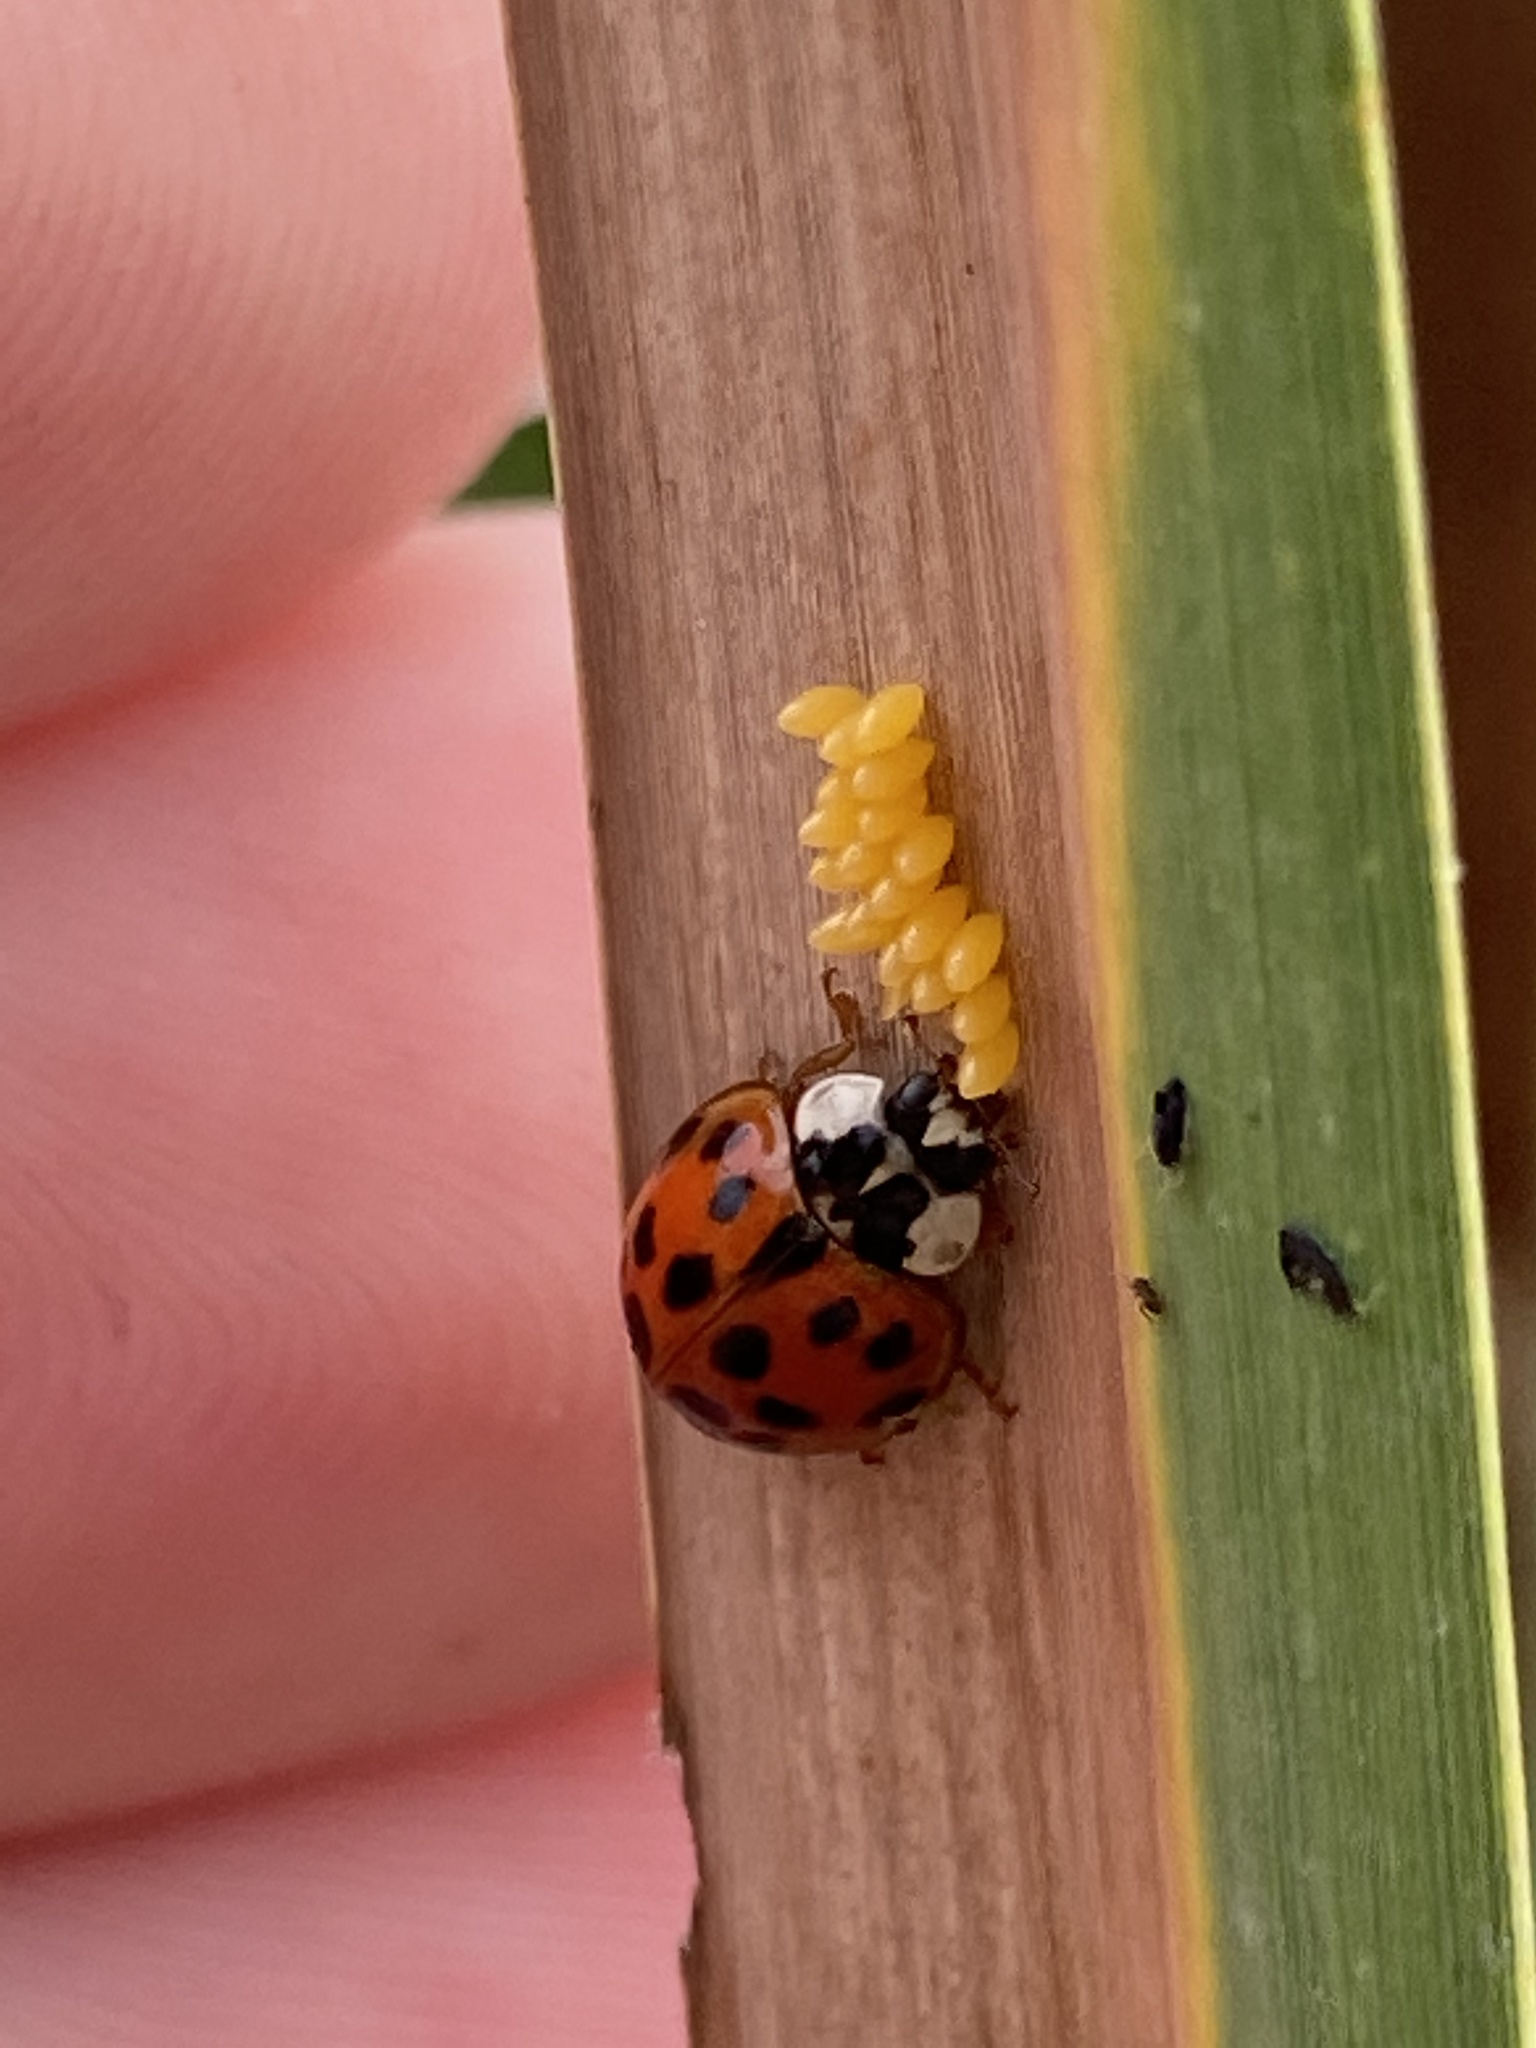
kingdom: Animalia
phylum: Arthropoda
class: Insecta
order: Coleoptera
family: Coccinellidae
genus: Harmonia
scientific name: Harmonia axyridis
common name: Harlequin ladybird
